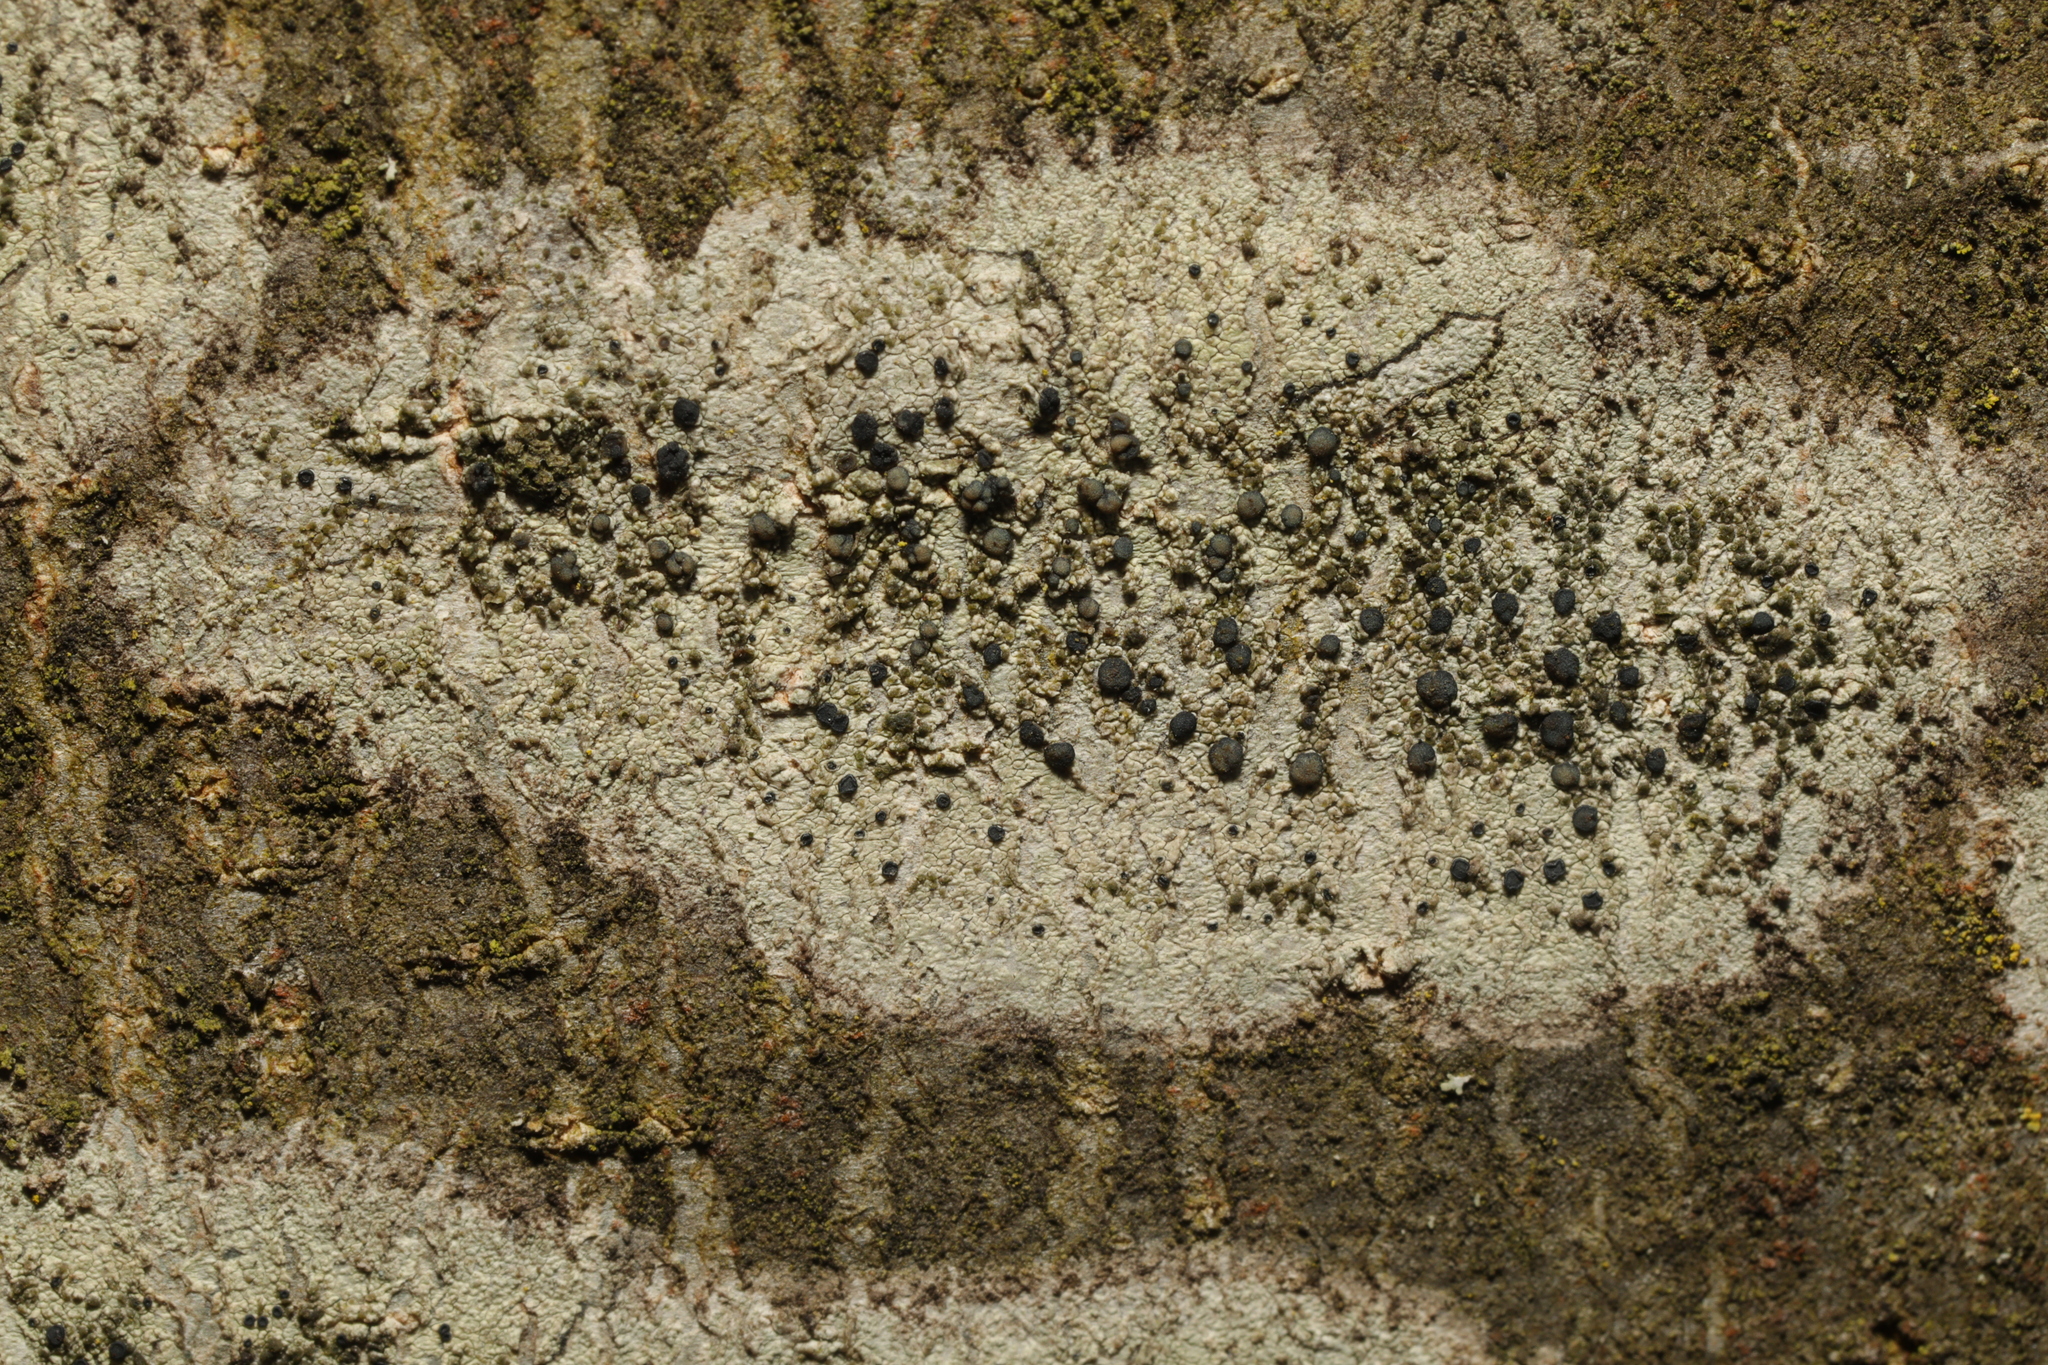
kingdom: Fungi
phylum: Ascomycota
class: Lecanoromycetes
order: Lecanorales
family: Lecanoraceae
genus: Lecidella
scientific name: Lecidella elaeochroma
